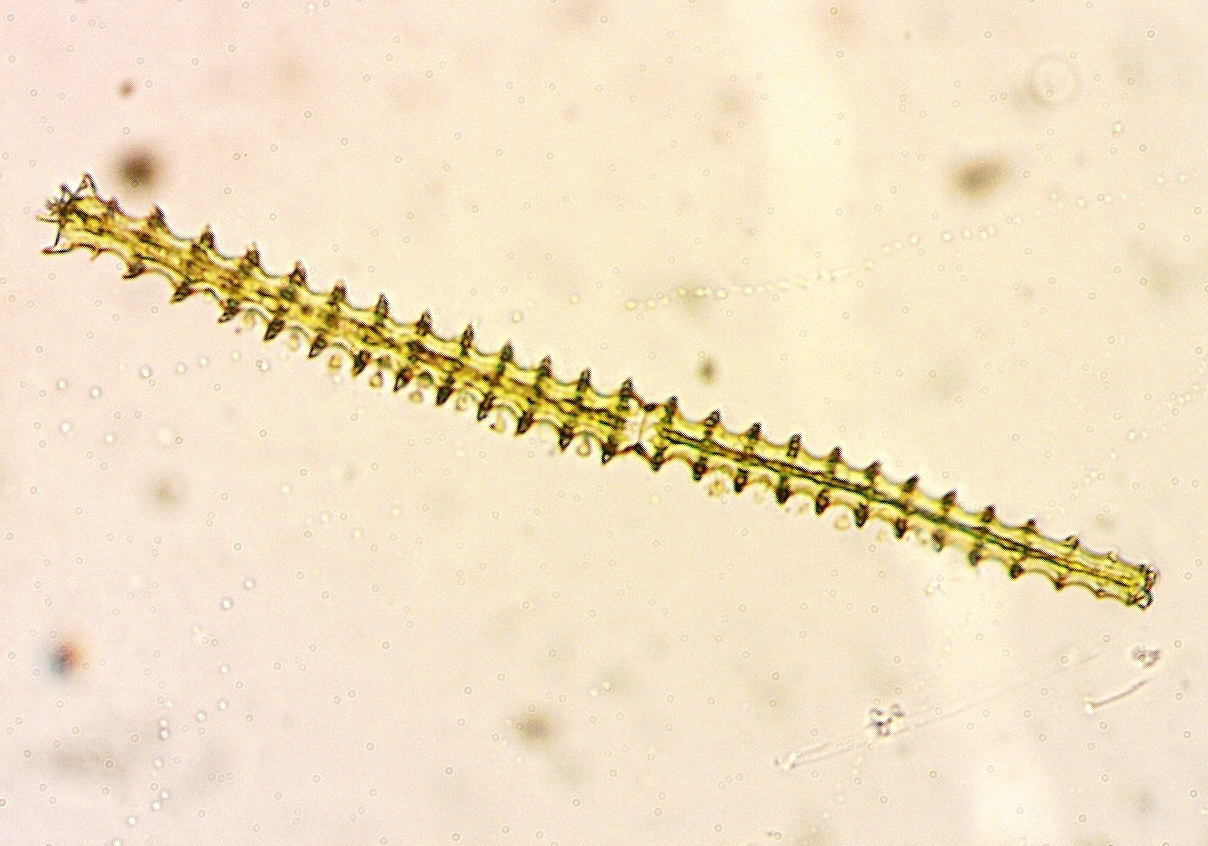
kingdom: Plantae
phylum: Charophyta
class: Conjugatophyceae
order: Desmidiales
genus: Triploceras
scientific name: Triploceras gracile
